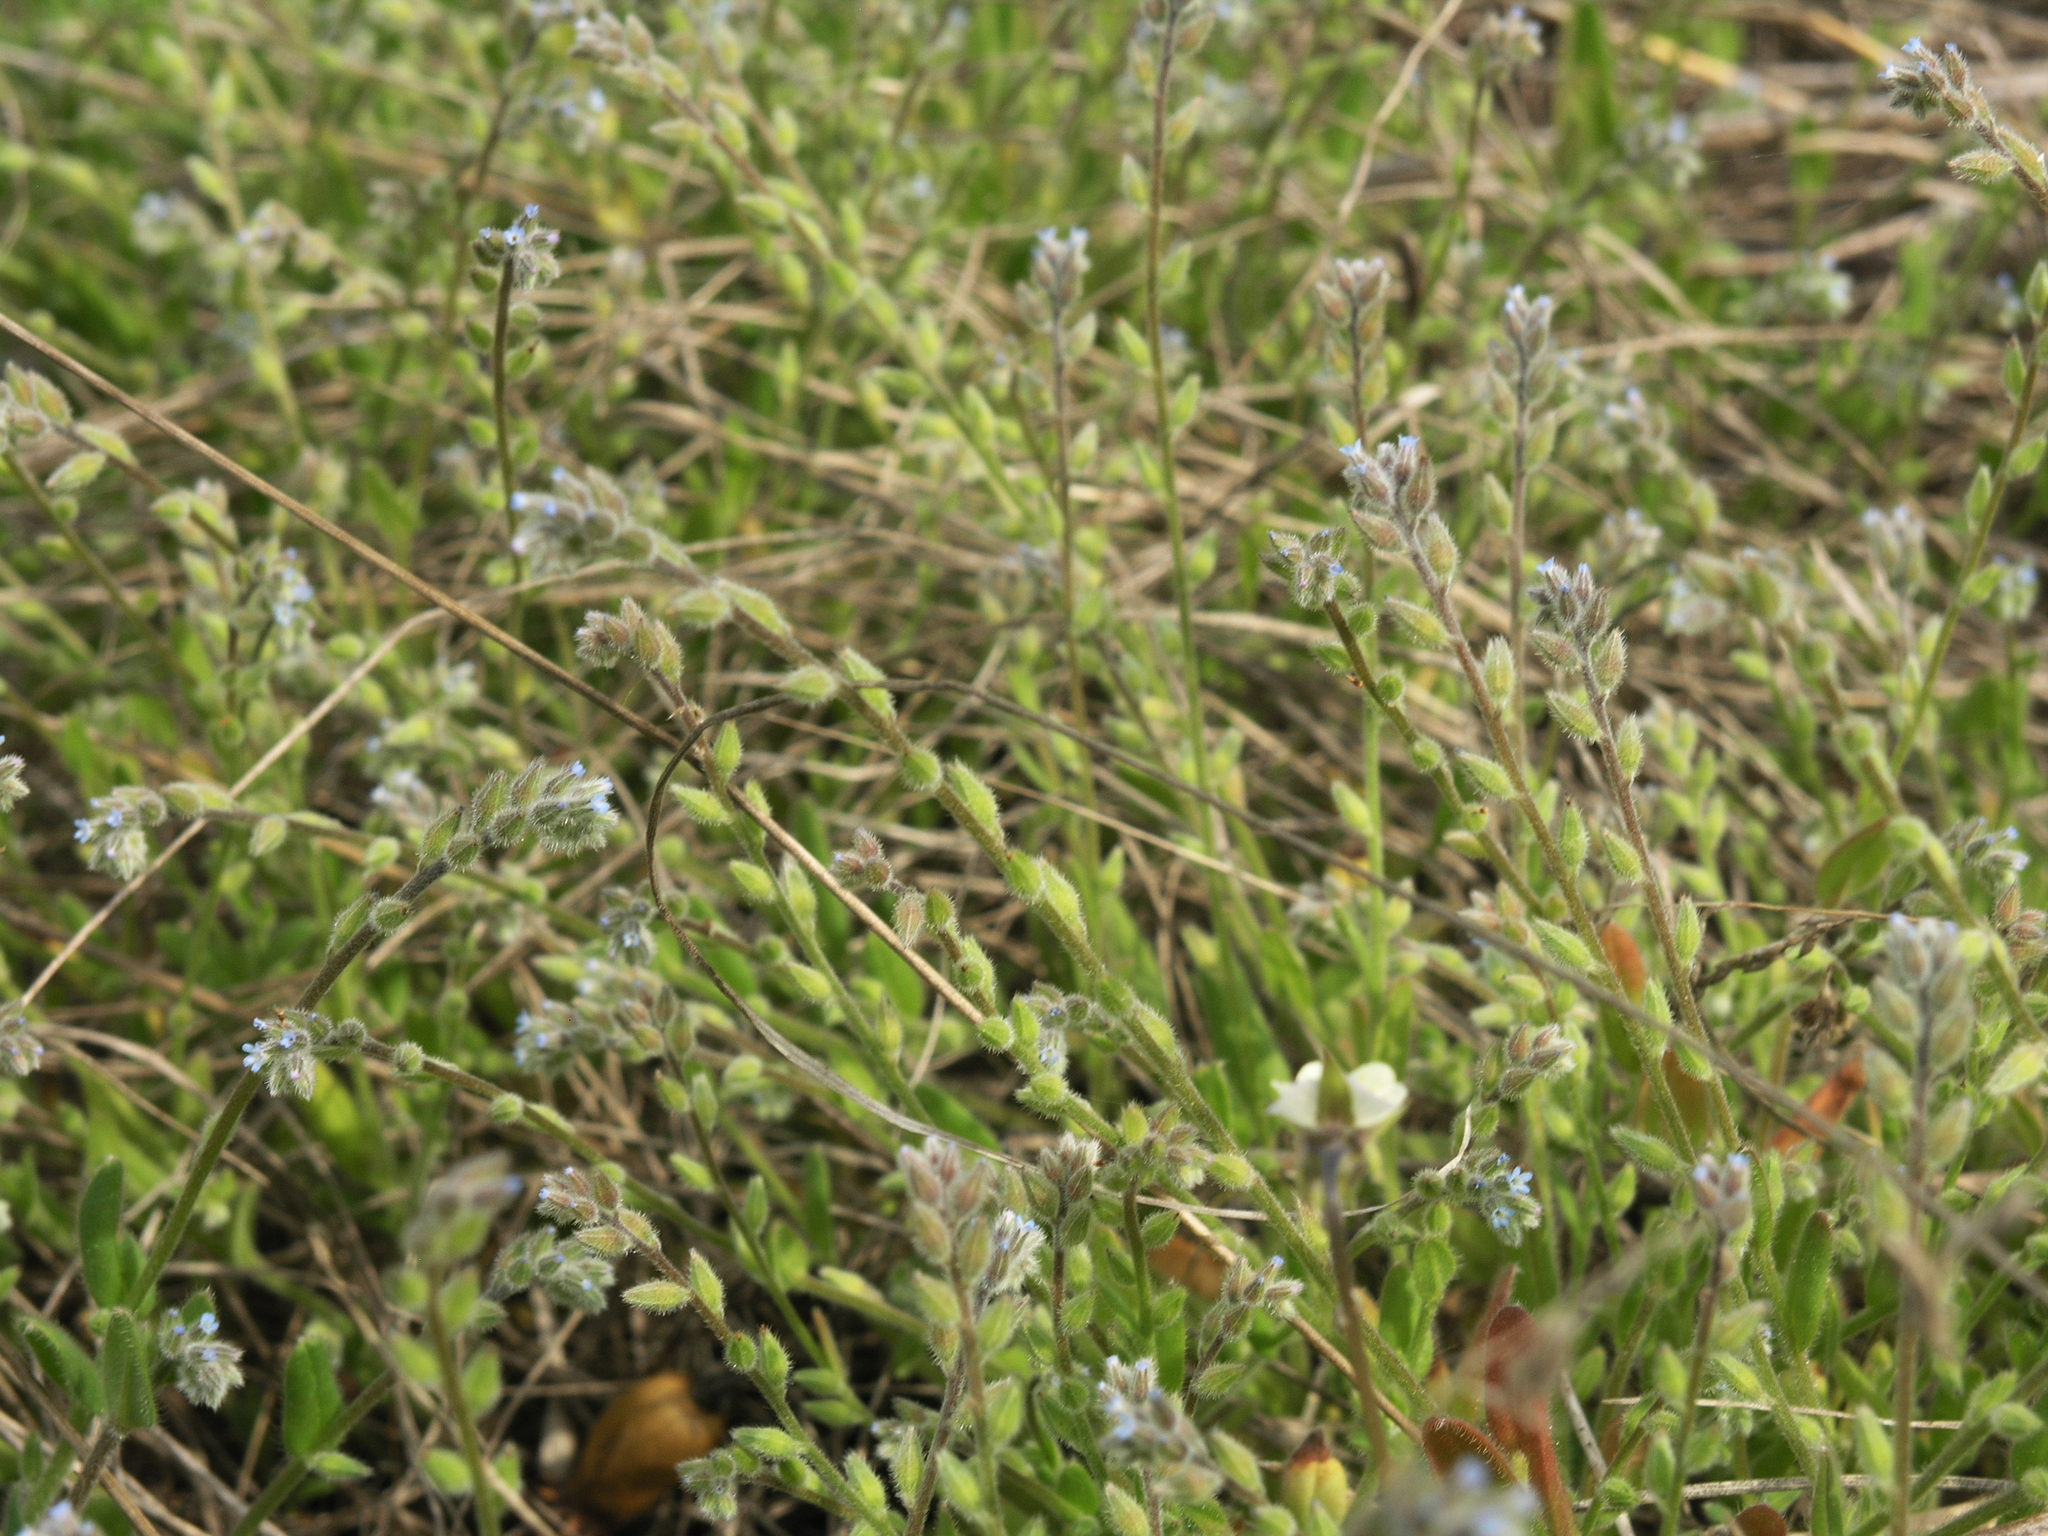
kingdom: Plantae
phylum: Tracheophyta
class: Magnoliopsida
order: Boraginales
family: Boraginaceae
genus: Myosotis
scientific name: Myosotis stricta
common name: Strict forget-me-not
